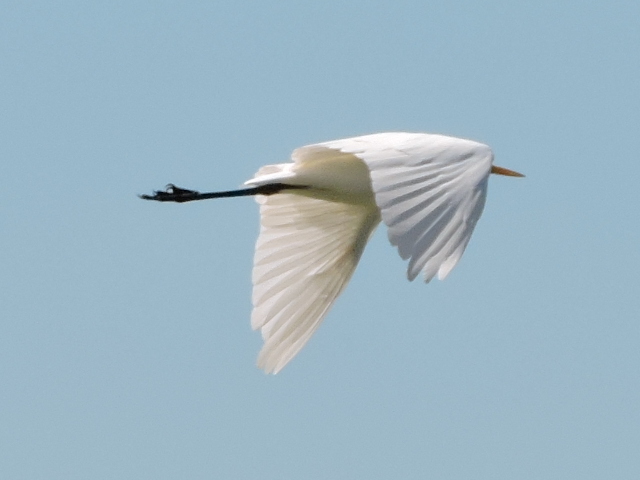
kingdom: Animalia
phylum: Chordata
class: Aves
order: Pelecaniformes
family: Ardeidae
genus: Ardea
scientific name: Ardea alba
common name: Great egret
